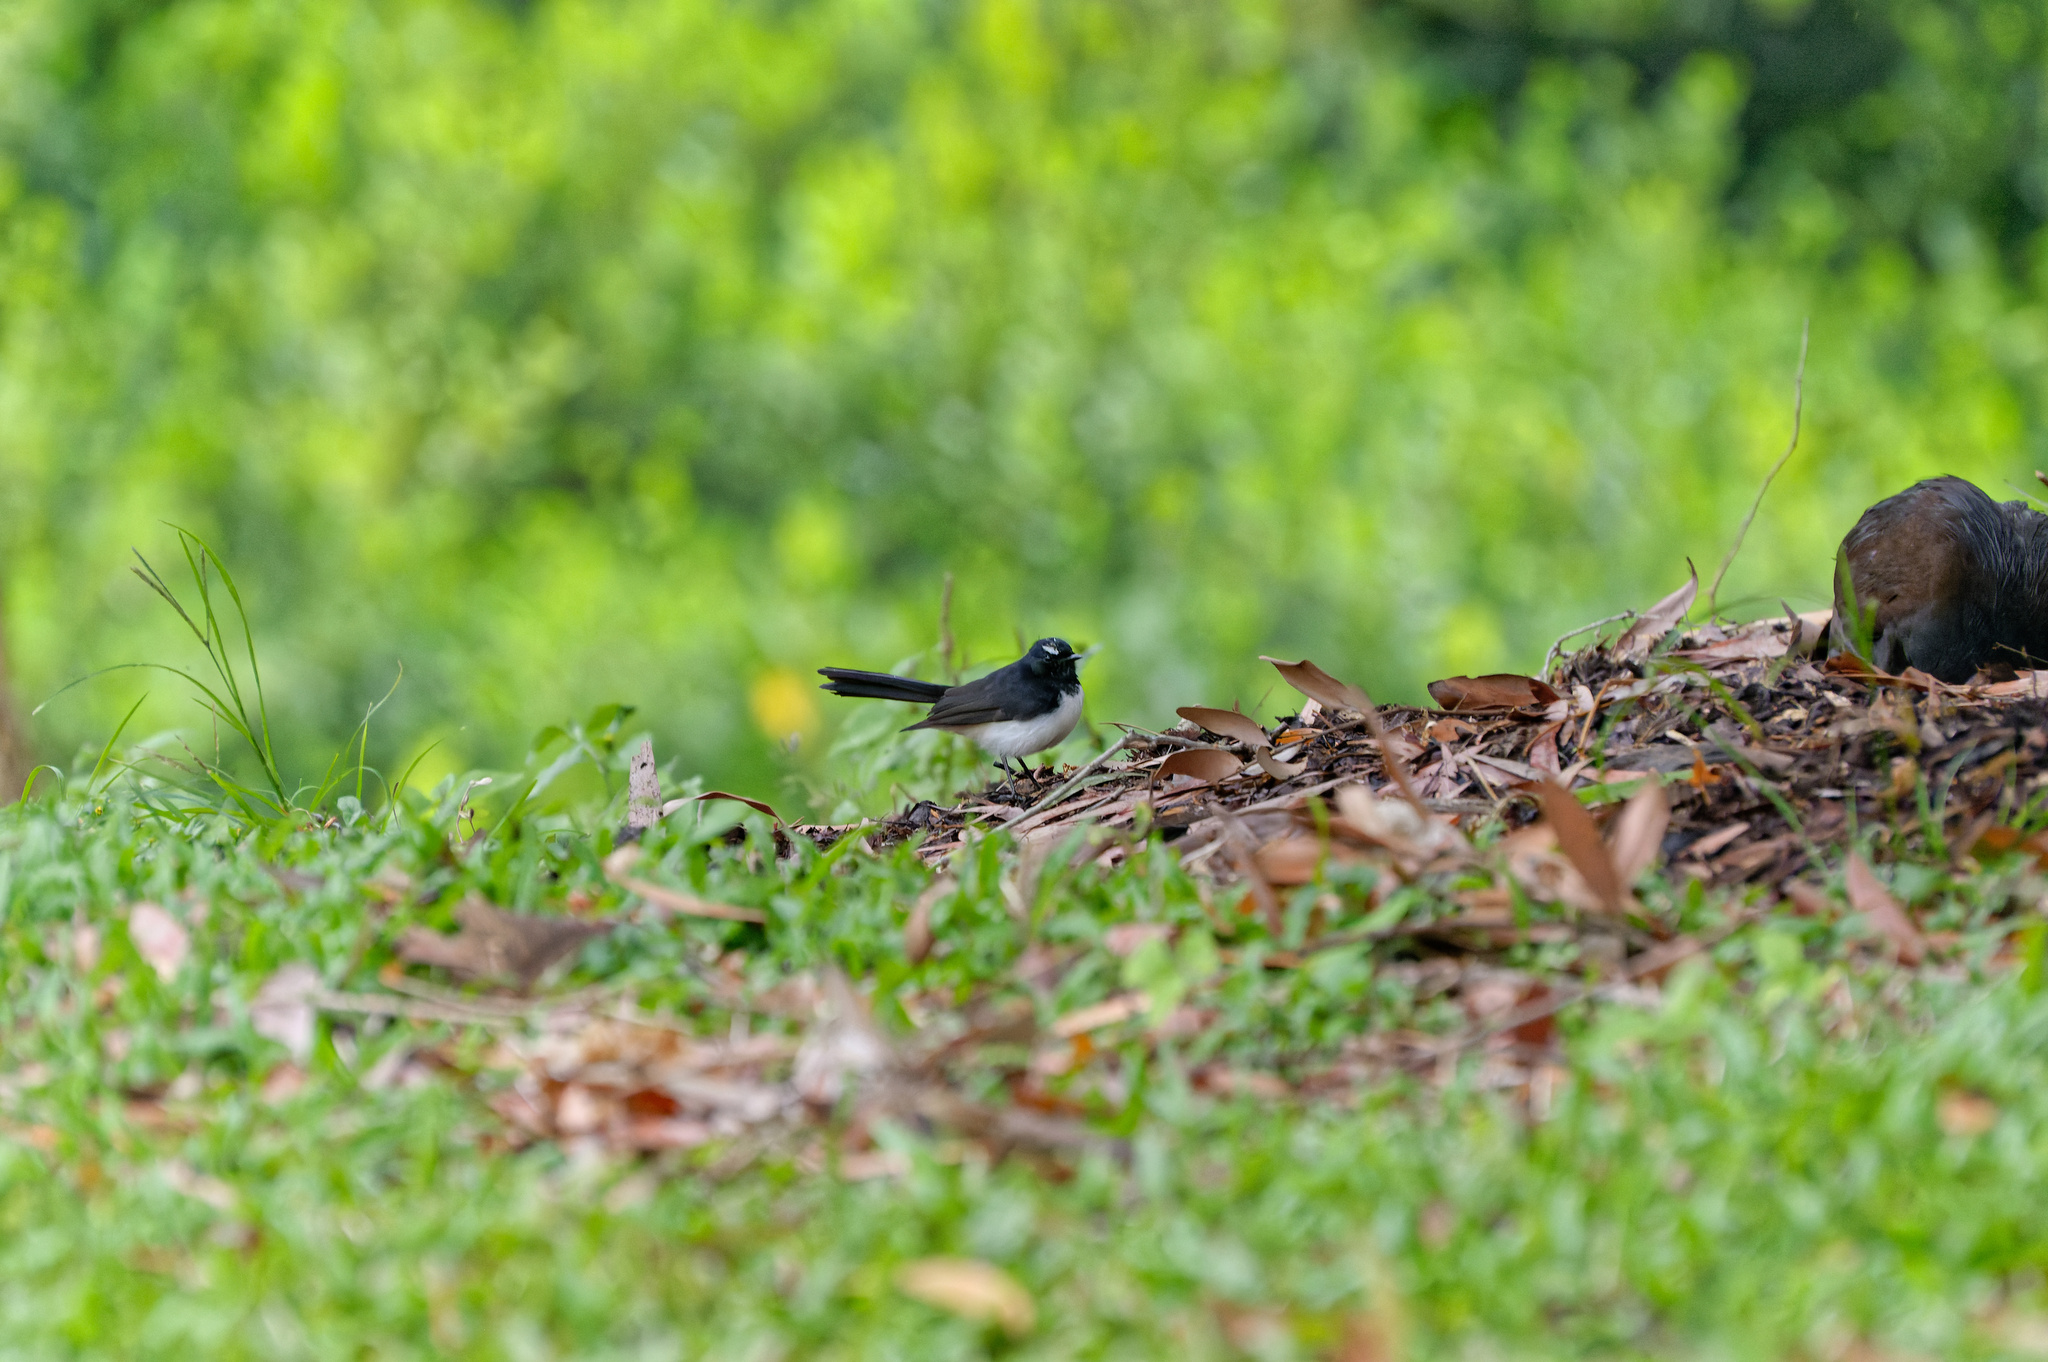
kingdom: Animalia
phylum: Chordata
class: Aves
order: Passeriformes
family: Rhipiduridae
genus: Rhipidura
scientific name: Rhipidura leucophrys
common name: Willie wagtail
